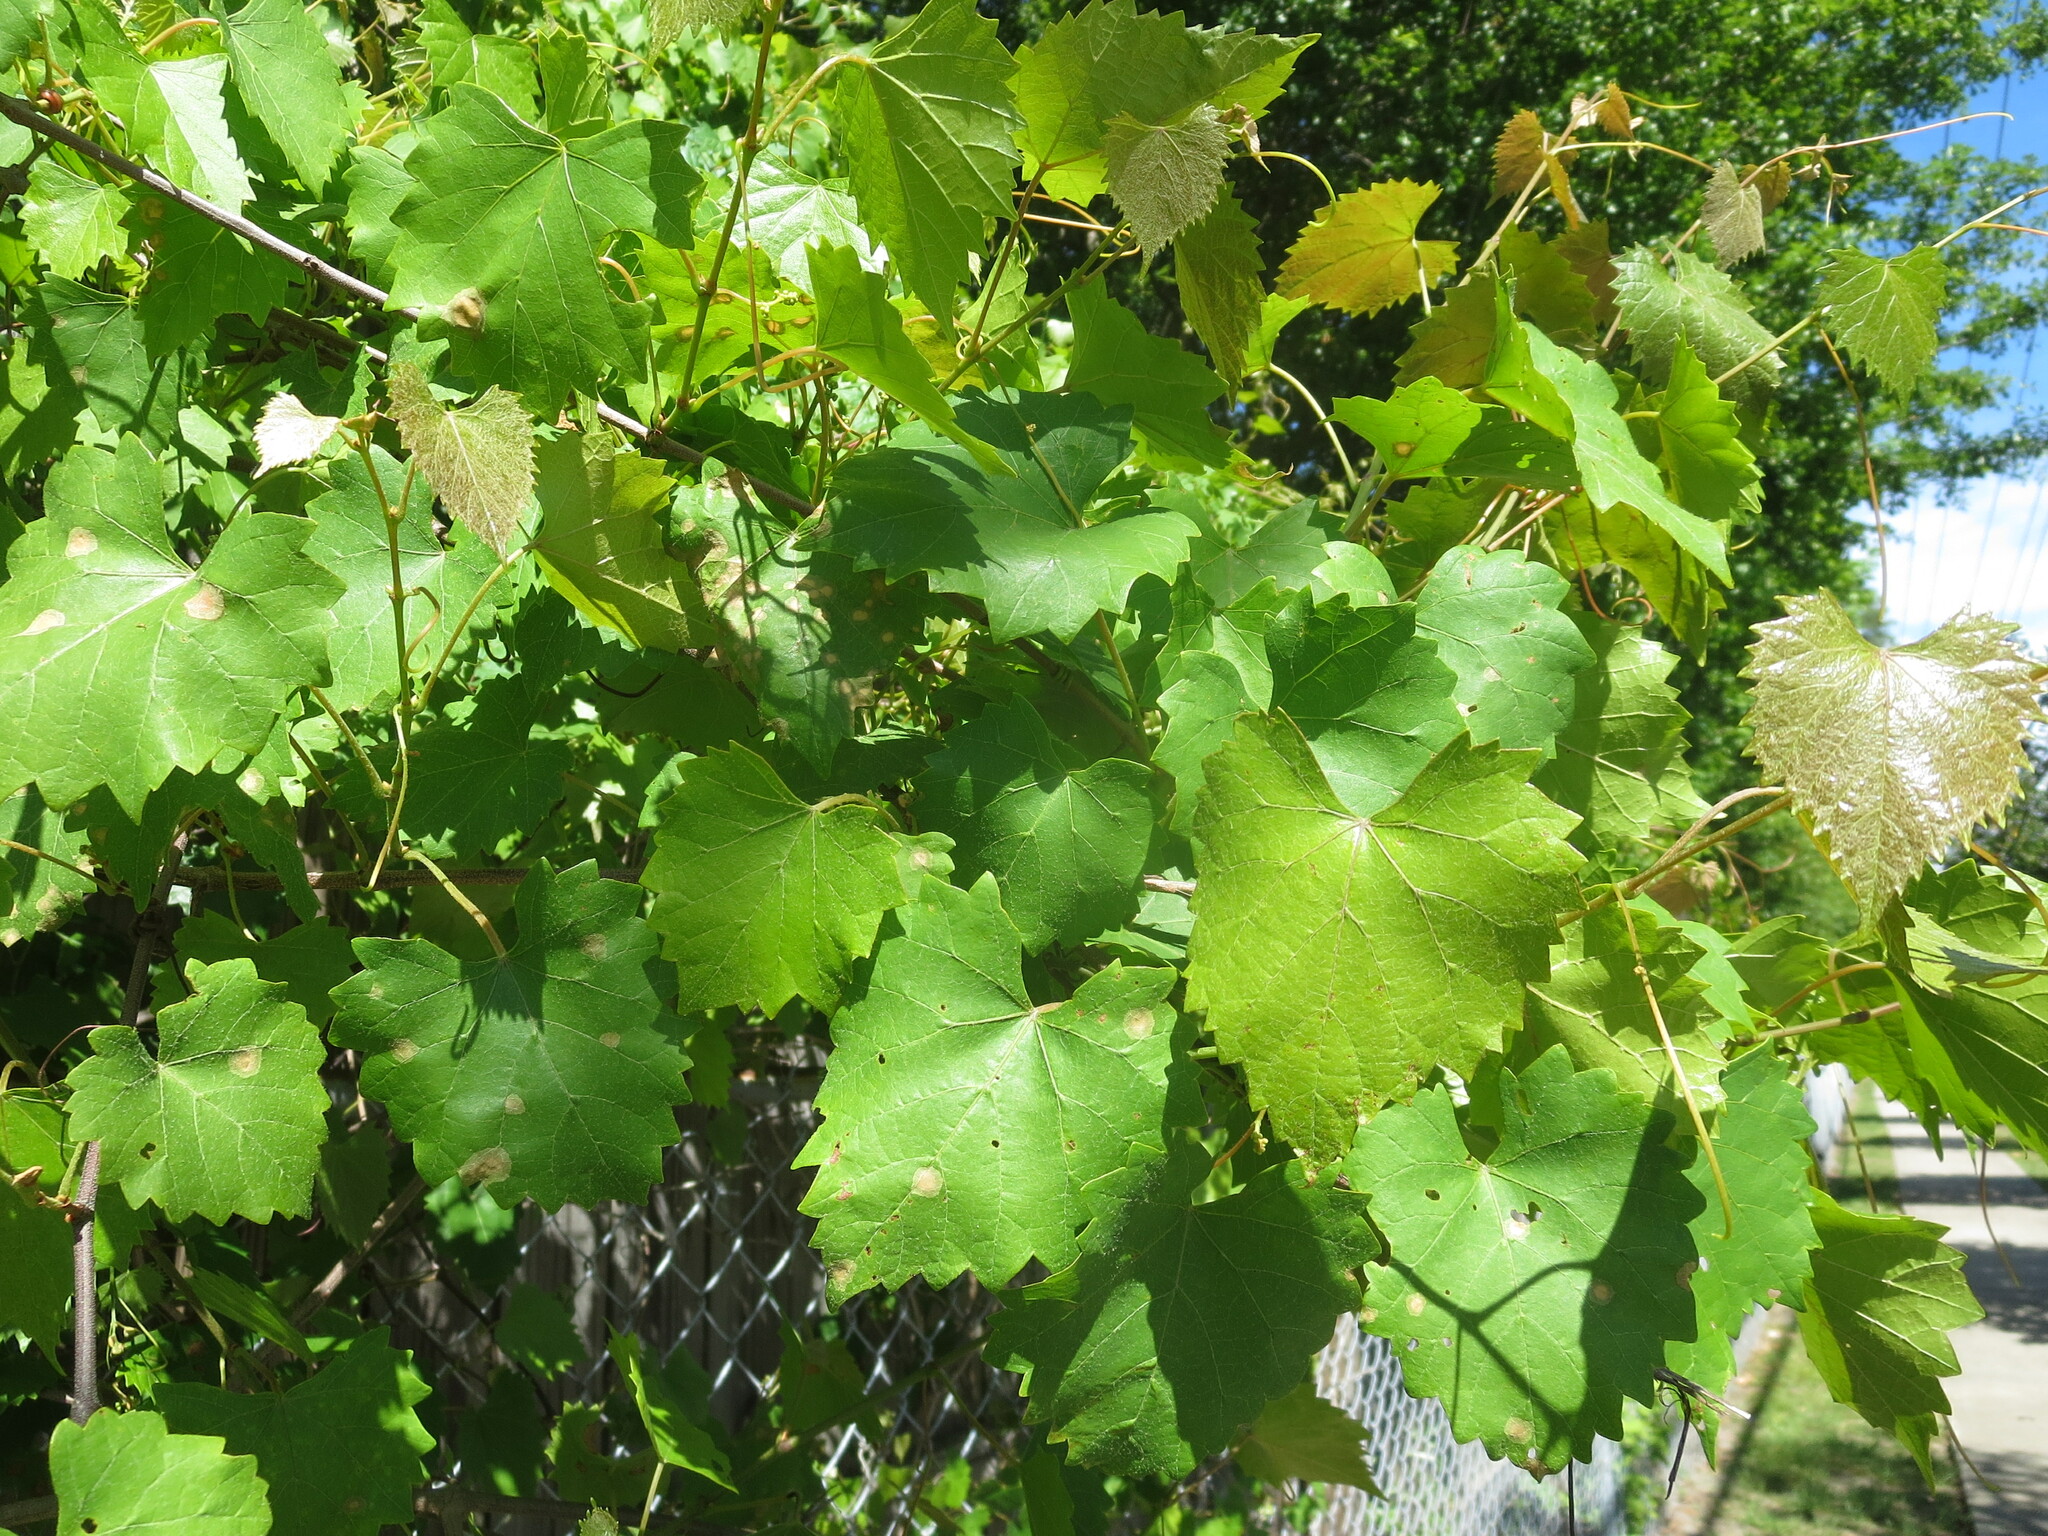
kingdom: Plantae
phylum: Tracheophyta
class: Magnoliopsida
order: Vitales
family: Vitaceae
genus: Vitis
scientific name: Vitis rotundifolia
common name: Muscadine grape
